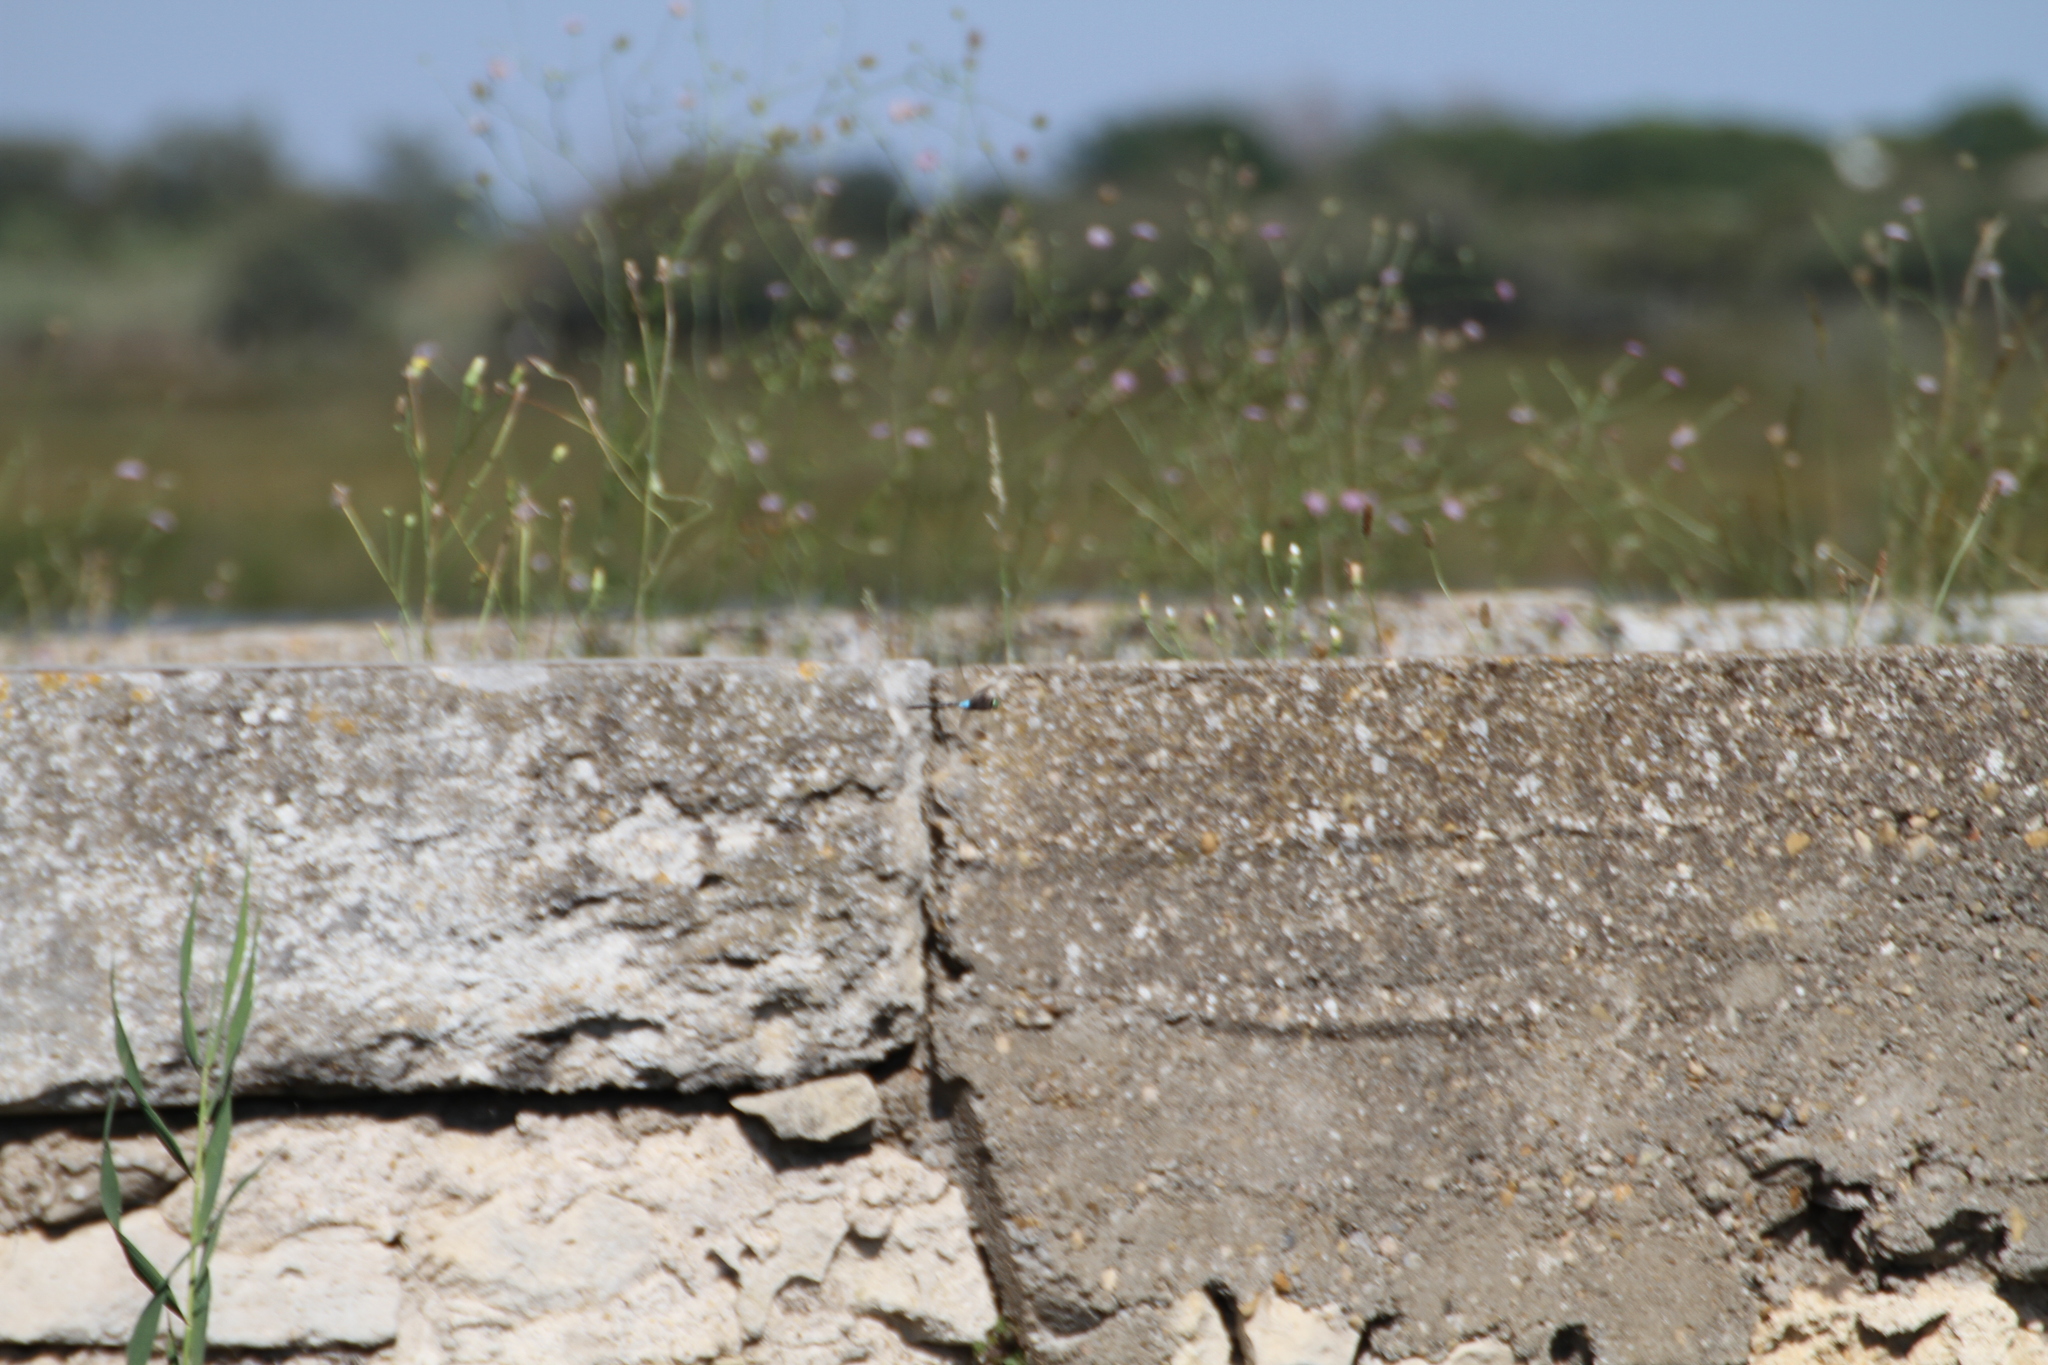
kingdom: Animalia
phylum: Arthropoda
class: Insecta
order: Odonata
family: Aeshnidae
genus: Anax
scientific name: Anax parthenope
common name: Lesser emperor
